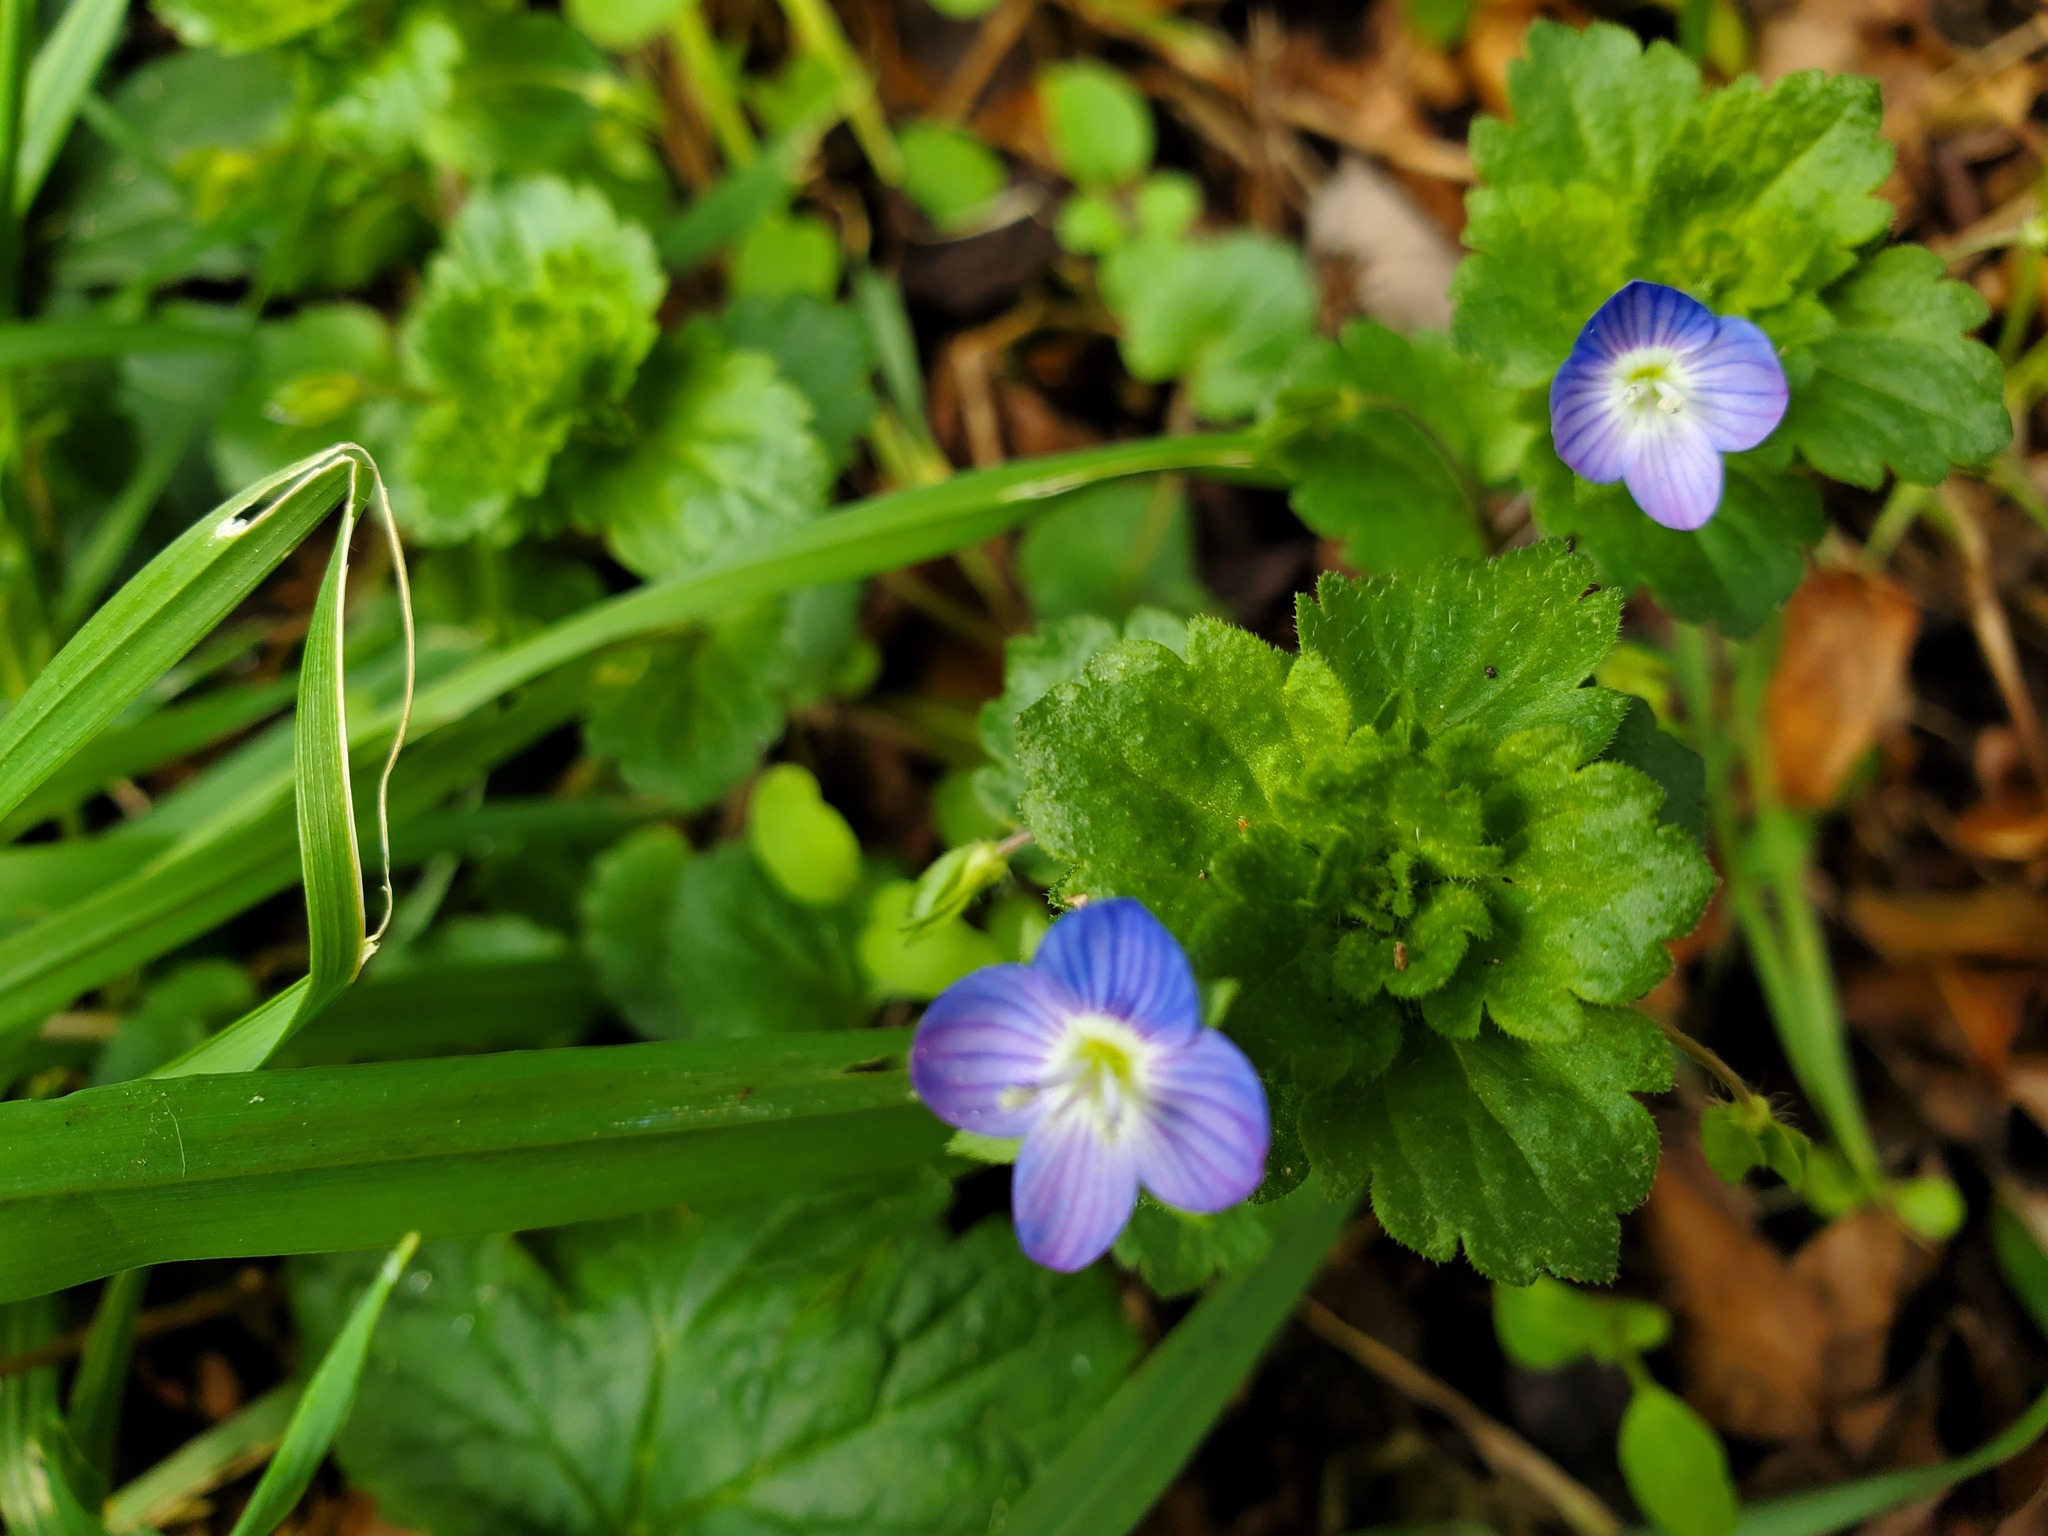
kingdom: Plantae
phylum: Tracheophyta
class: Magnoliopsida
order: Lamiales
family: Plantaginaceae
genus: Veronica
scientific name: Veronica persica
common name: Common field-speedwell
